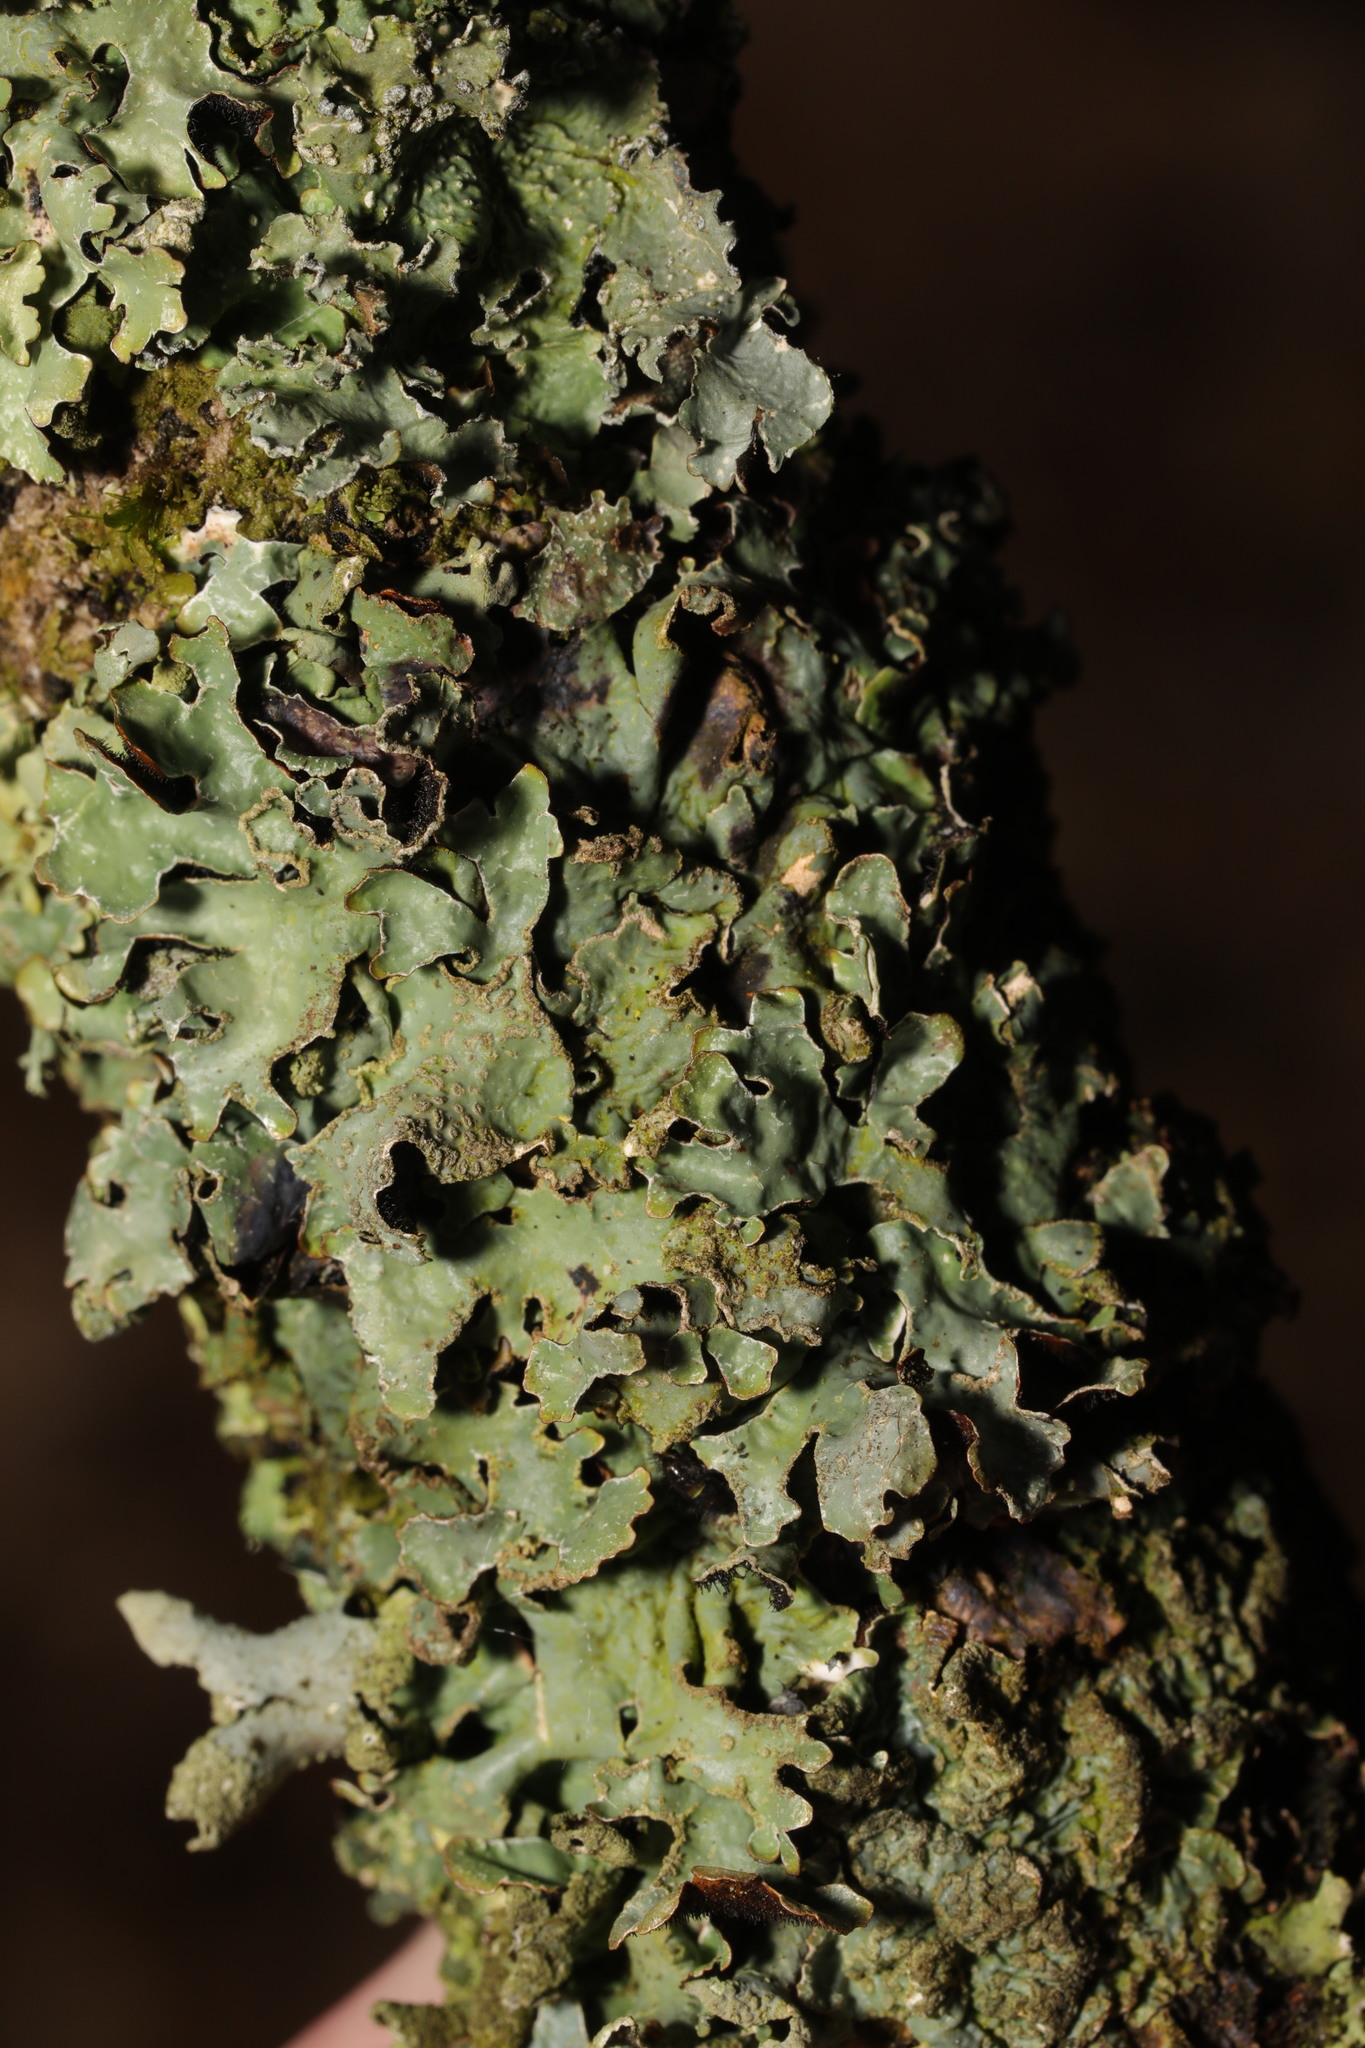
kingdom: Fungi
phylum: Ascomycota
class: Lecanoromycetes
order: Lecanorales
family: Parmeliaceae
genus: Parmelia
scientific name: Parmelia sulcata
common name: Netted shield lichen
